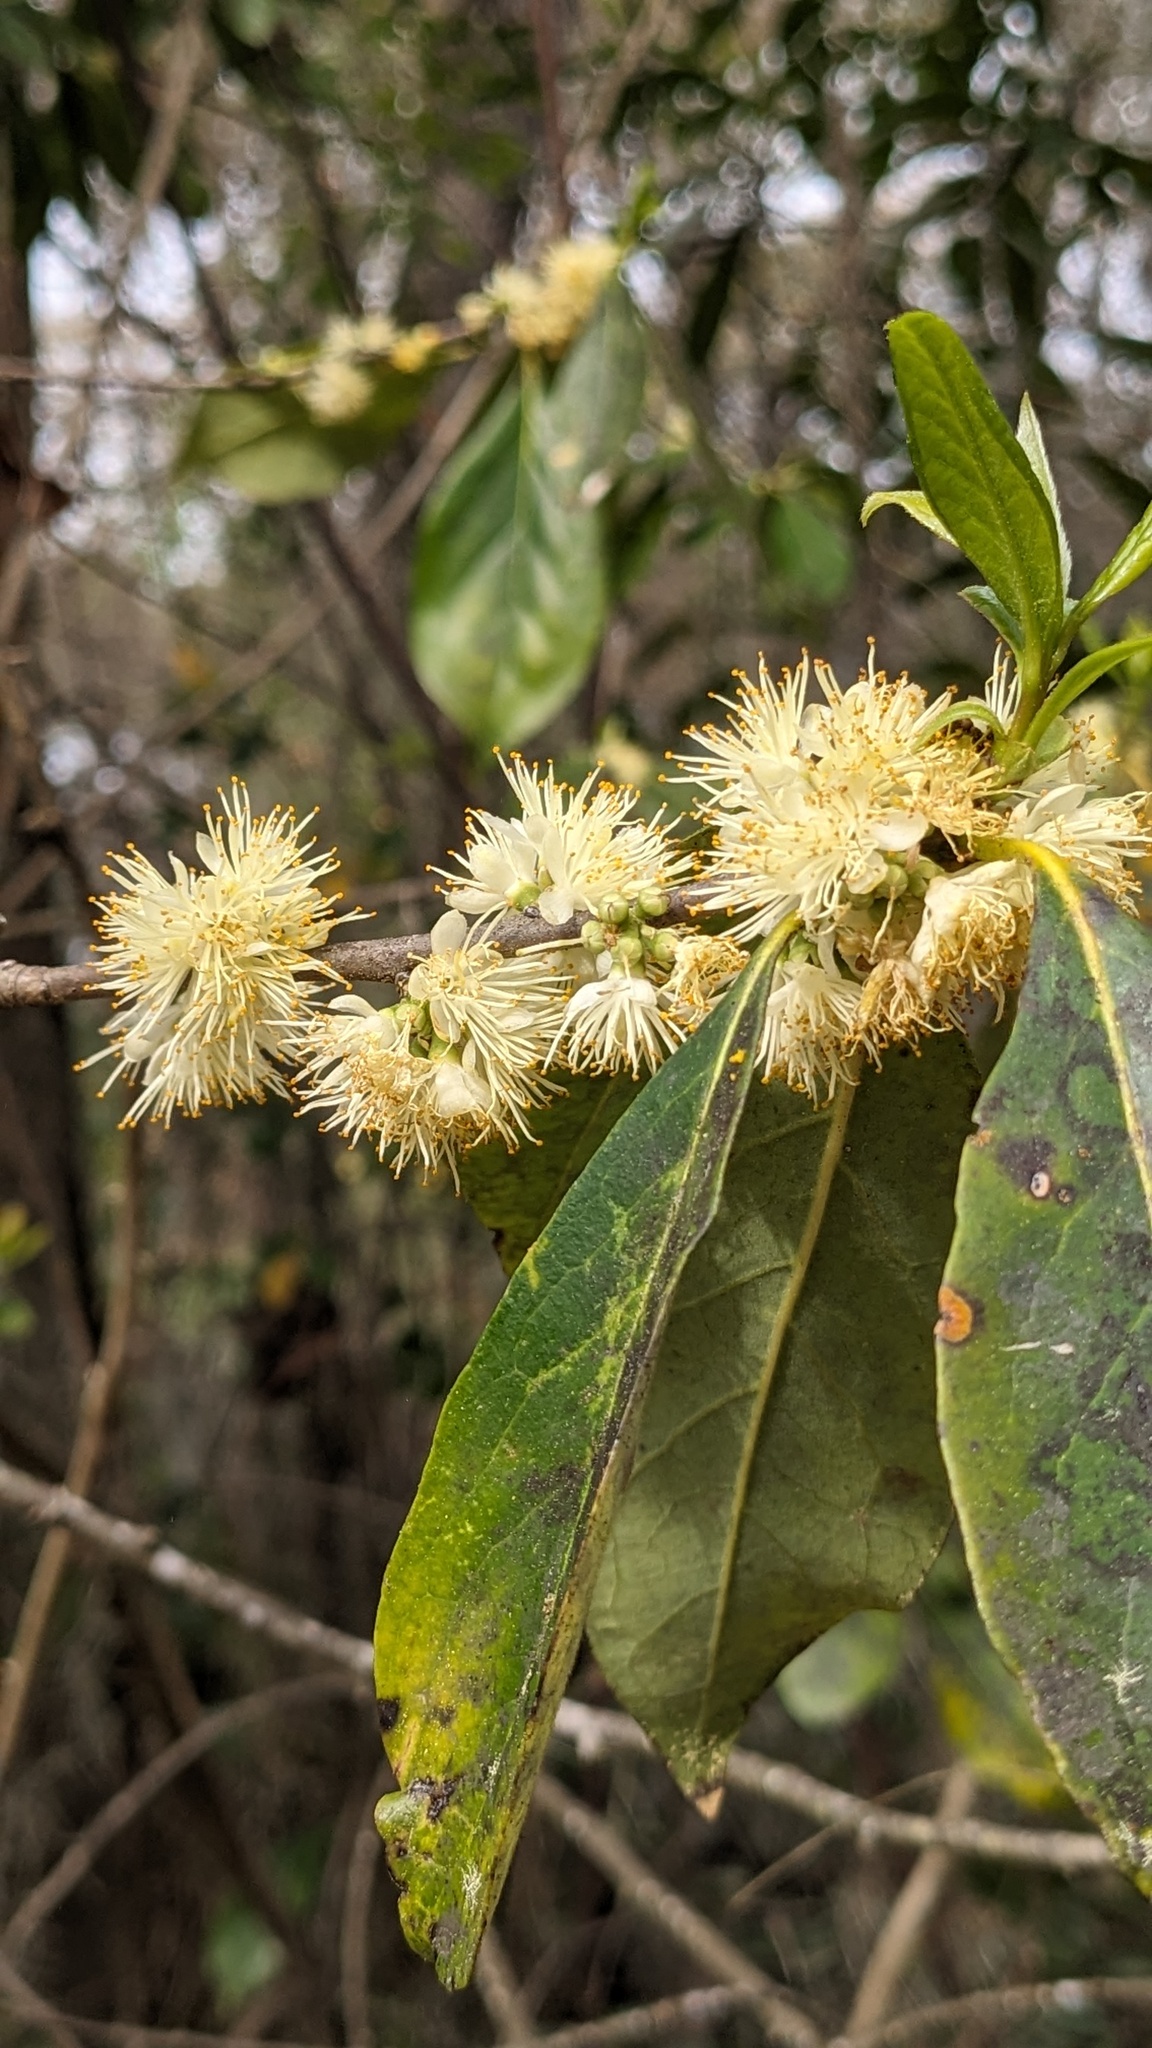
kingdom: Plantae
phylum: Tracheophyta
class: Magnoliopsida
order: Ericales
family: Symplocaceae
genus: Symplocos
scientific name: Symplocos tinctoria
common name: Horse-sugar
